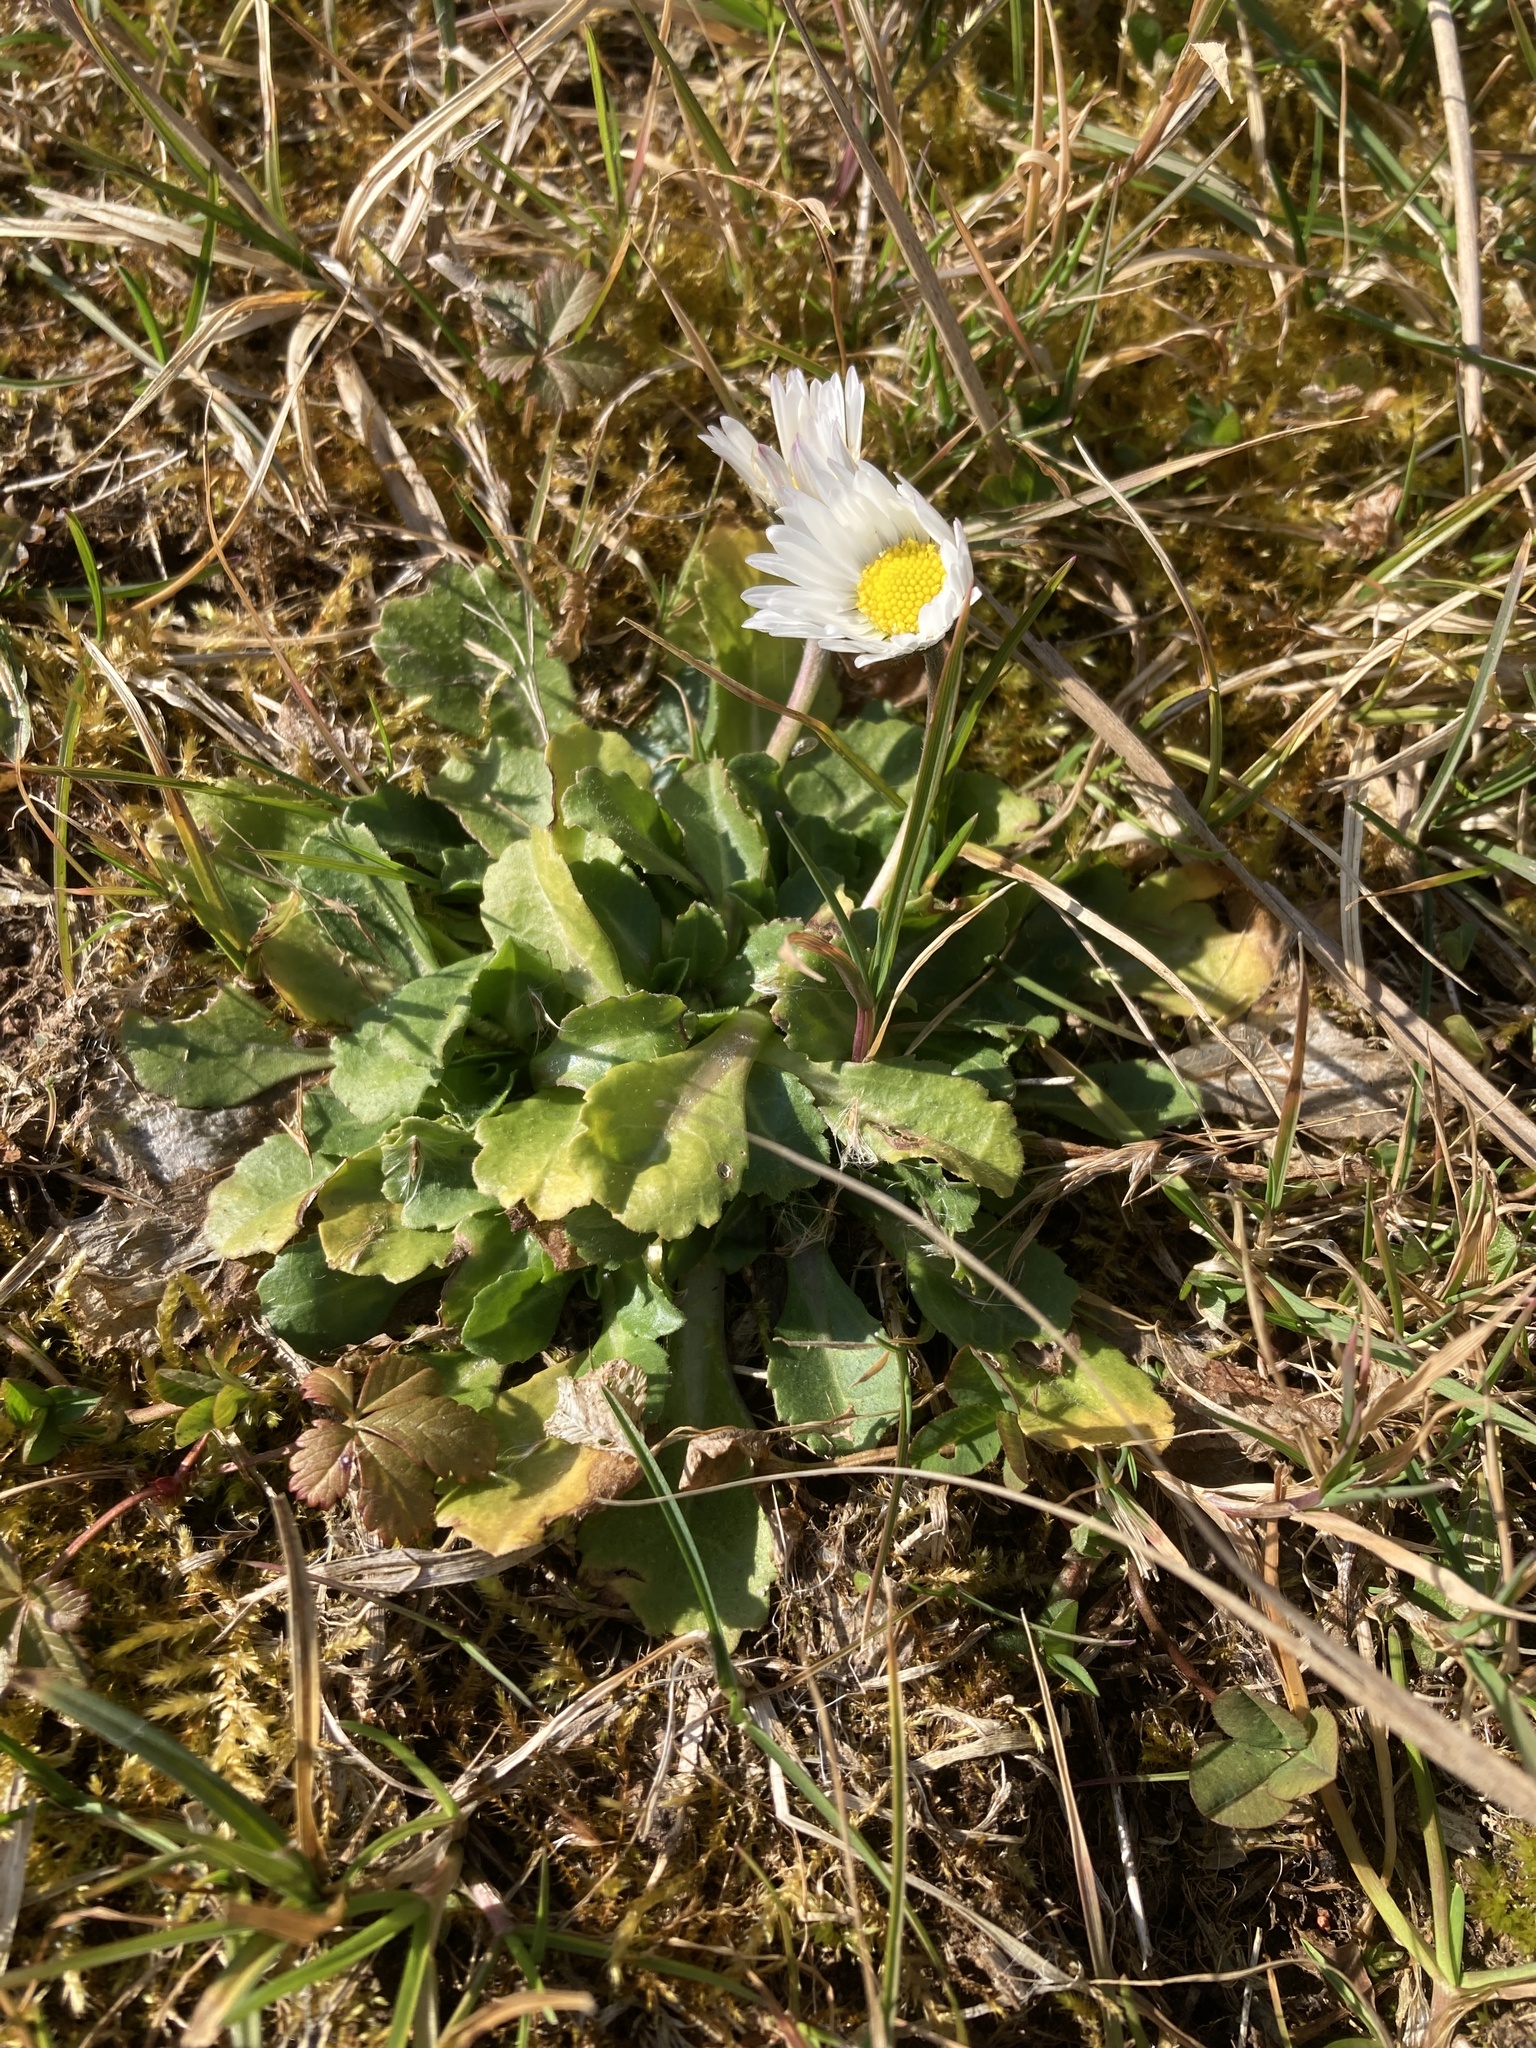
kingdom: Plantae
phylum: Tracheophyta
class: Magnoliopsida
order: Asterales
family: Asteraceae
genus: Bellis
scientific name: Bellis perennis
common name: Lawndaisy
